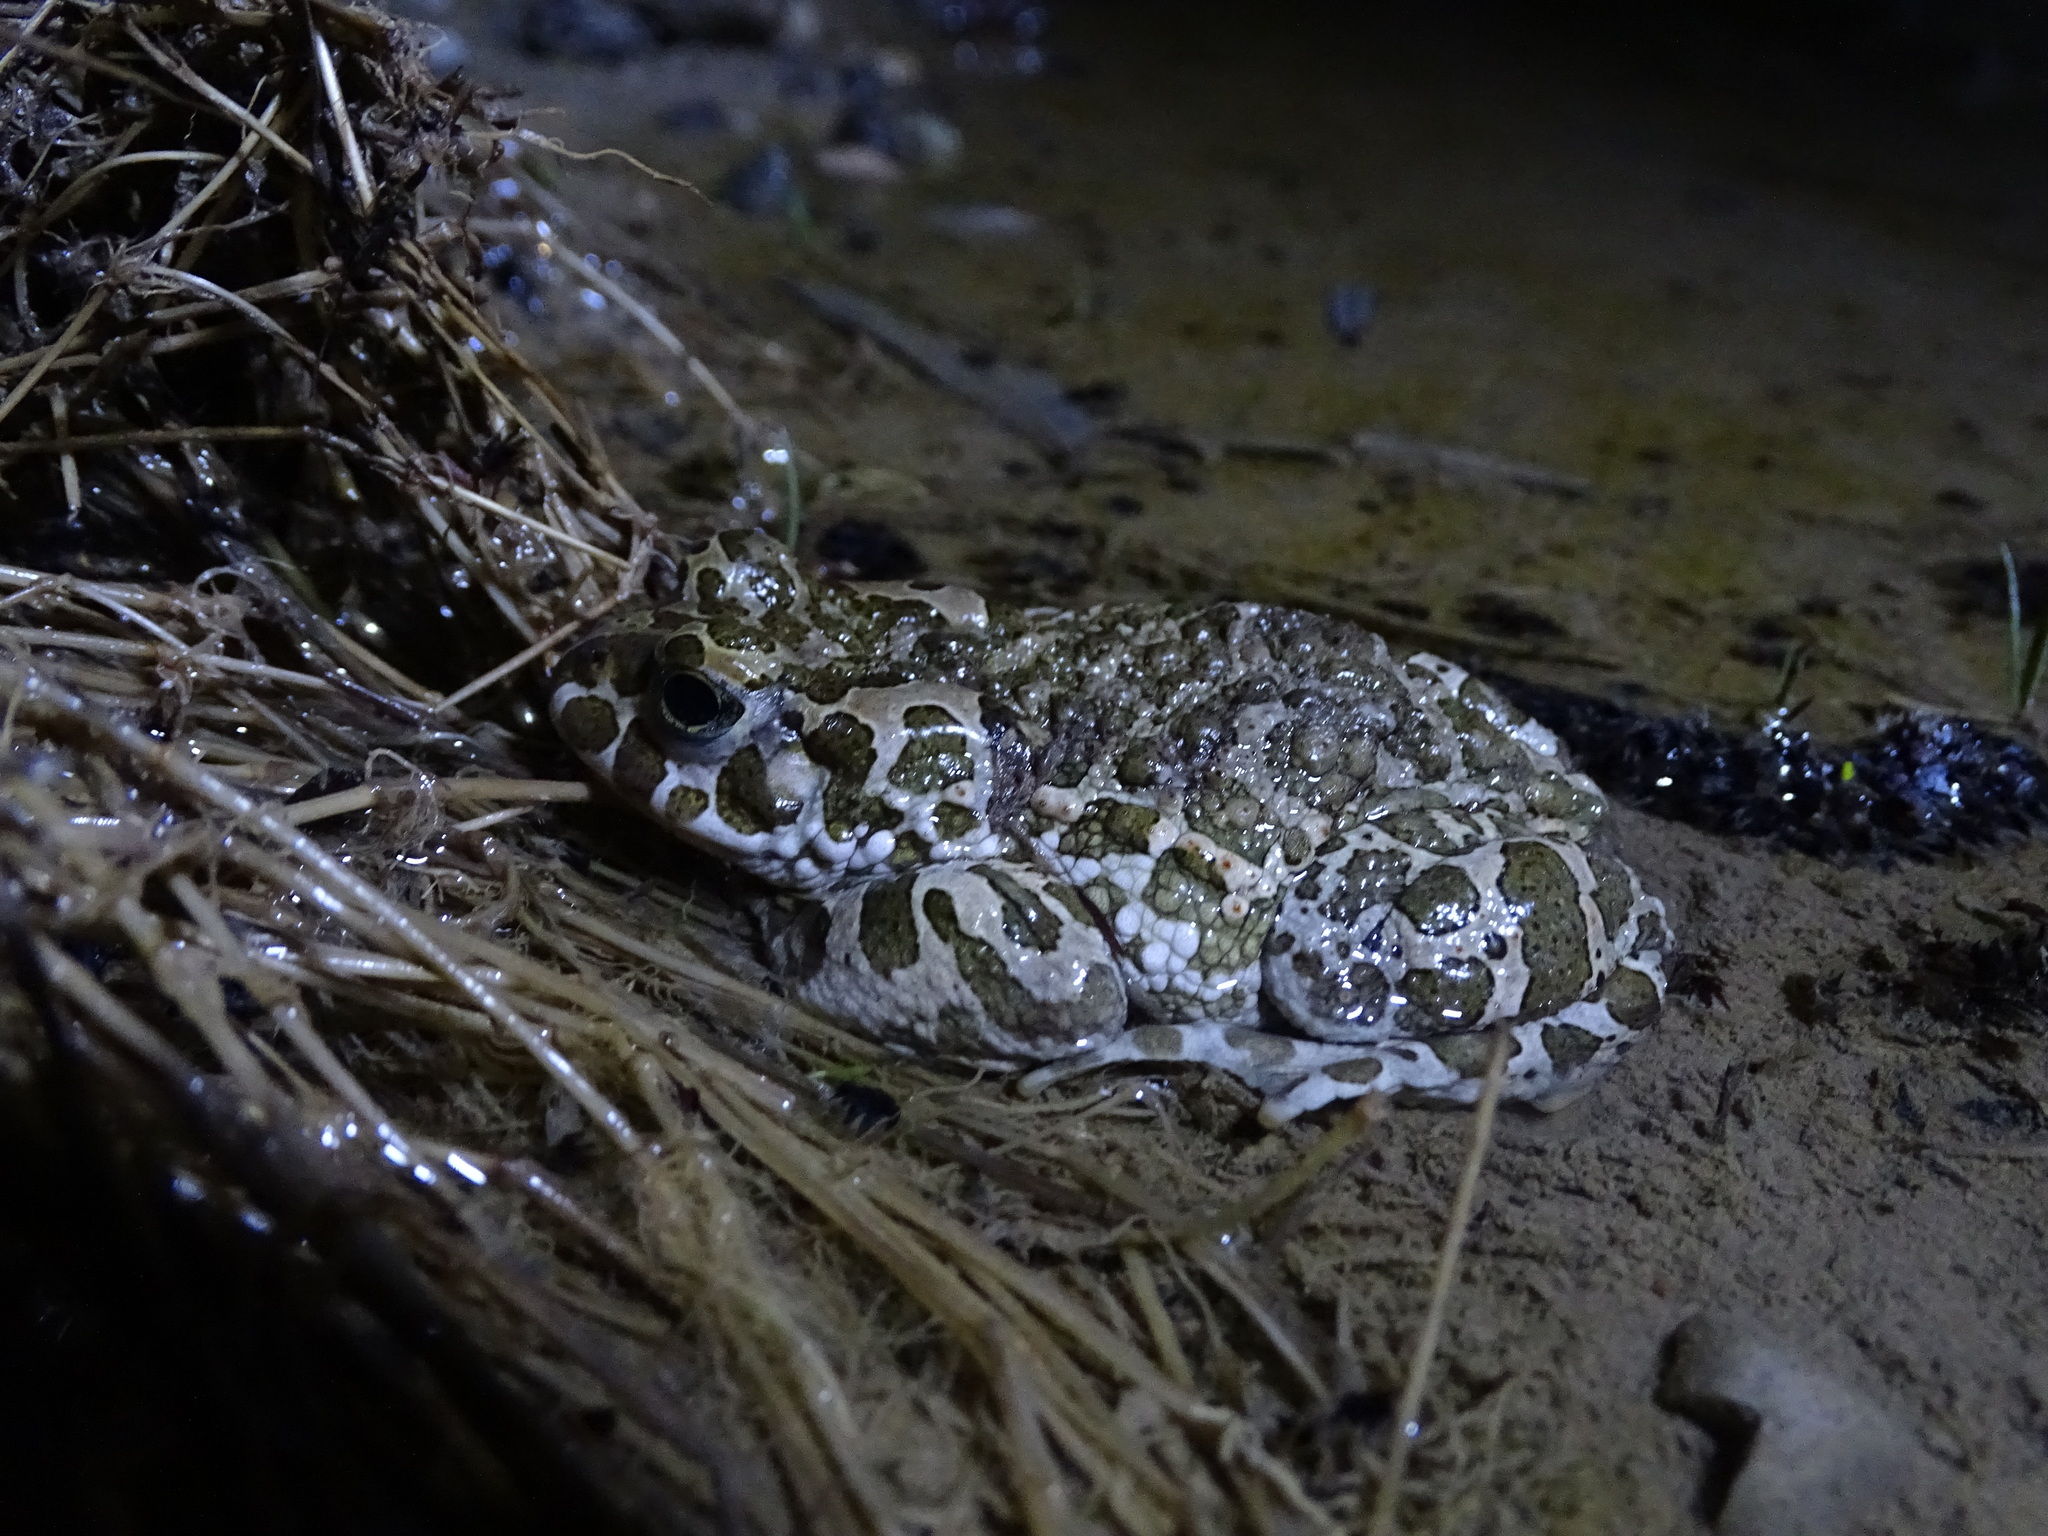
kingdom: Animalia
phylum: Chordata
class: Amphibia
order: Anura
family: Bufonidae
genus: Bufotes
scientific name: Bufotes viridis
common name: European green toad
